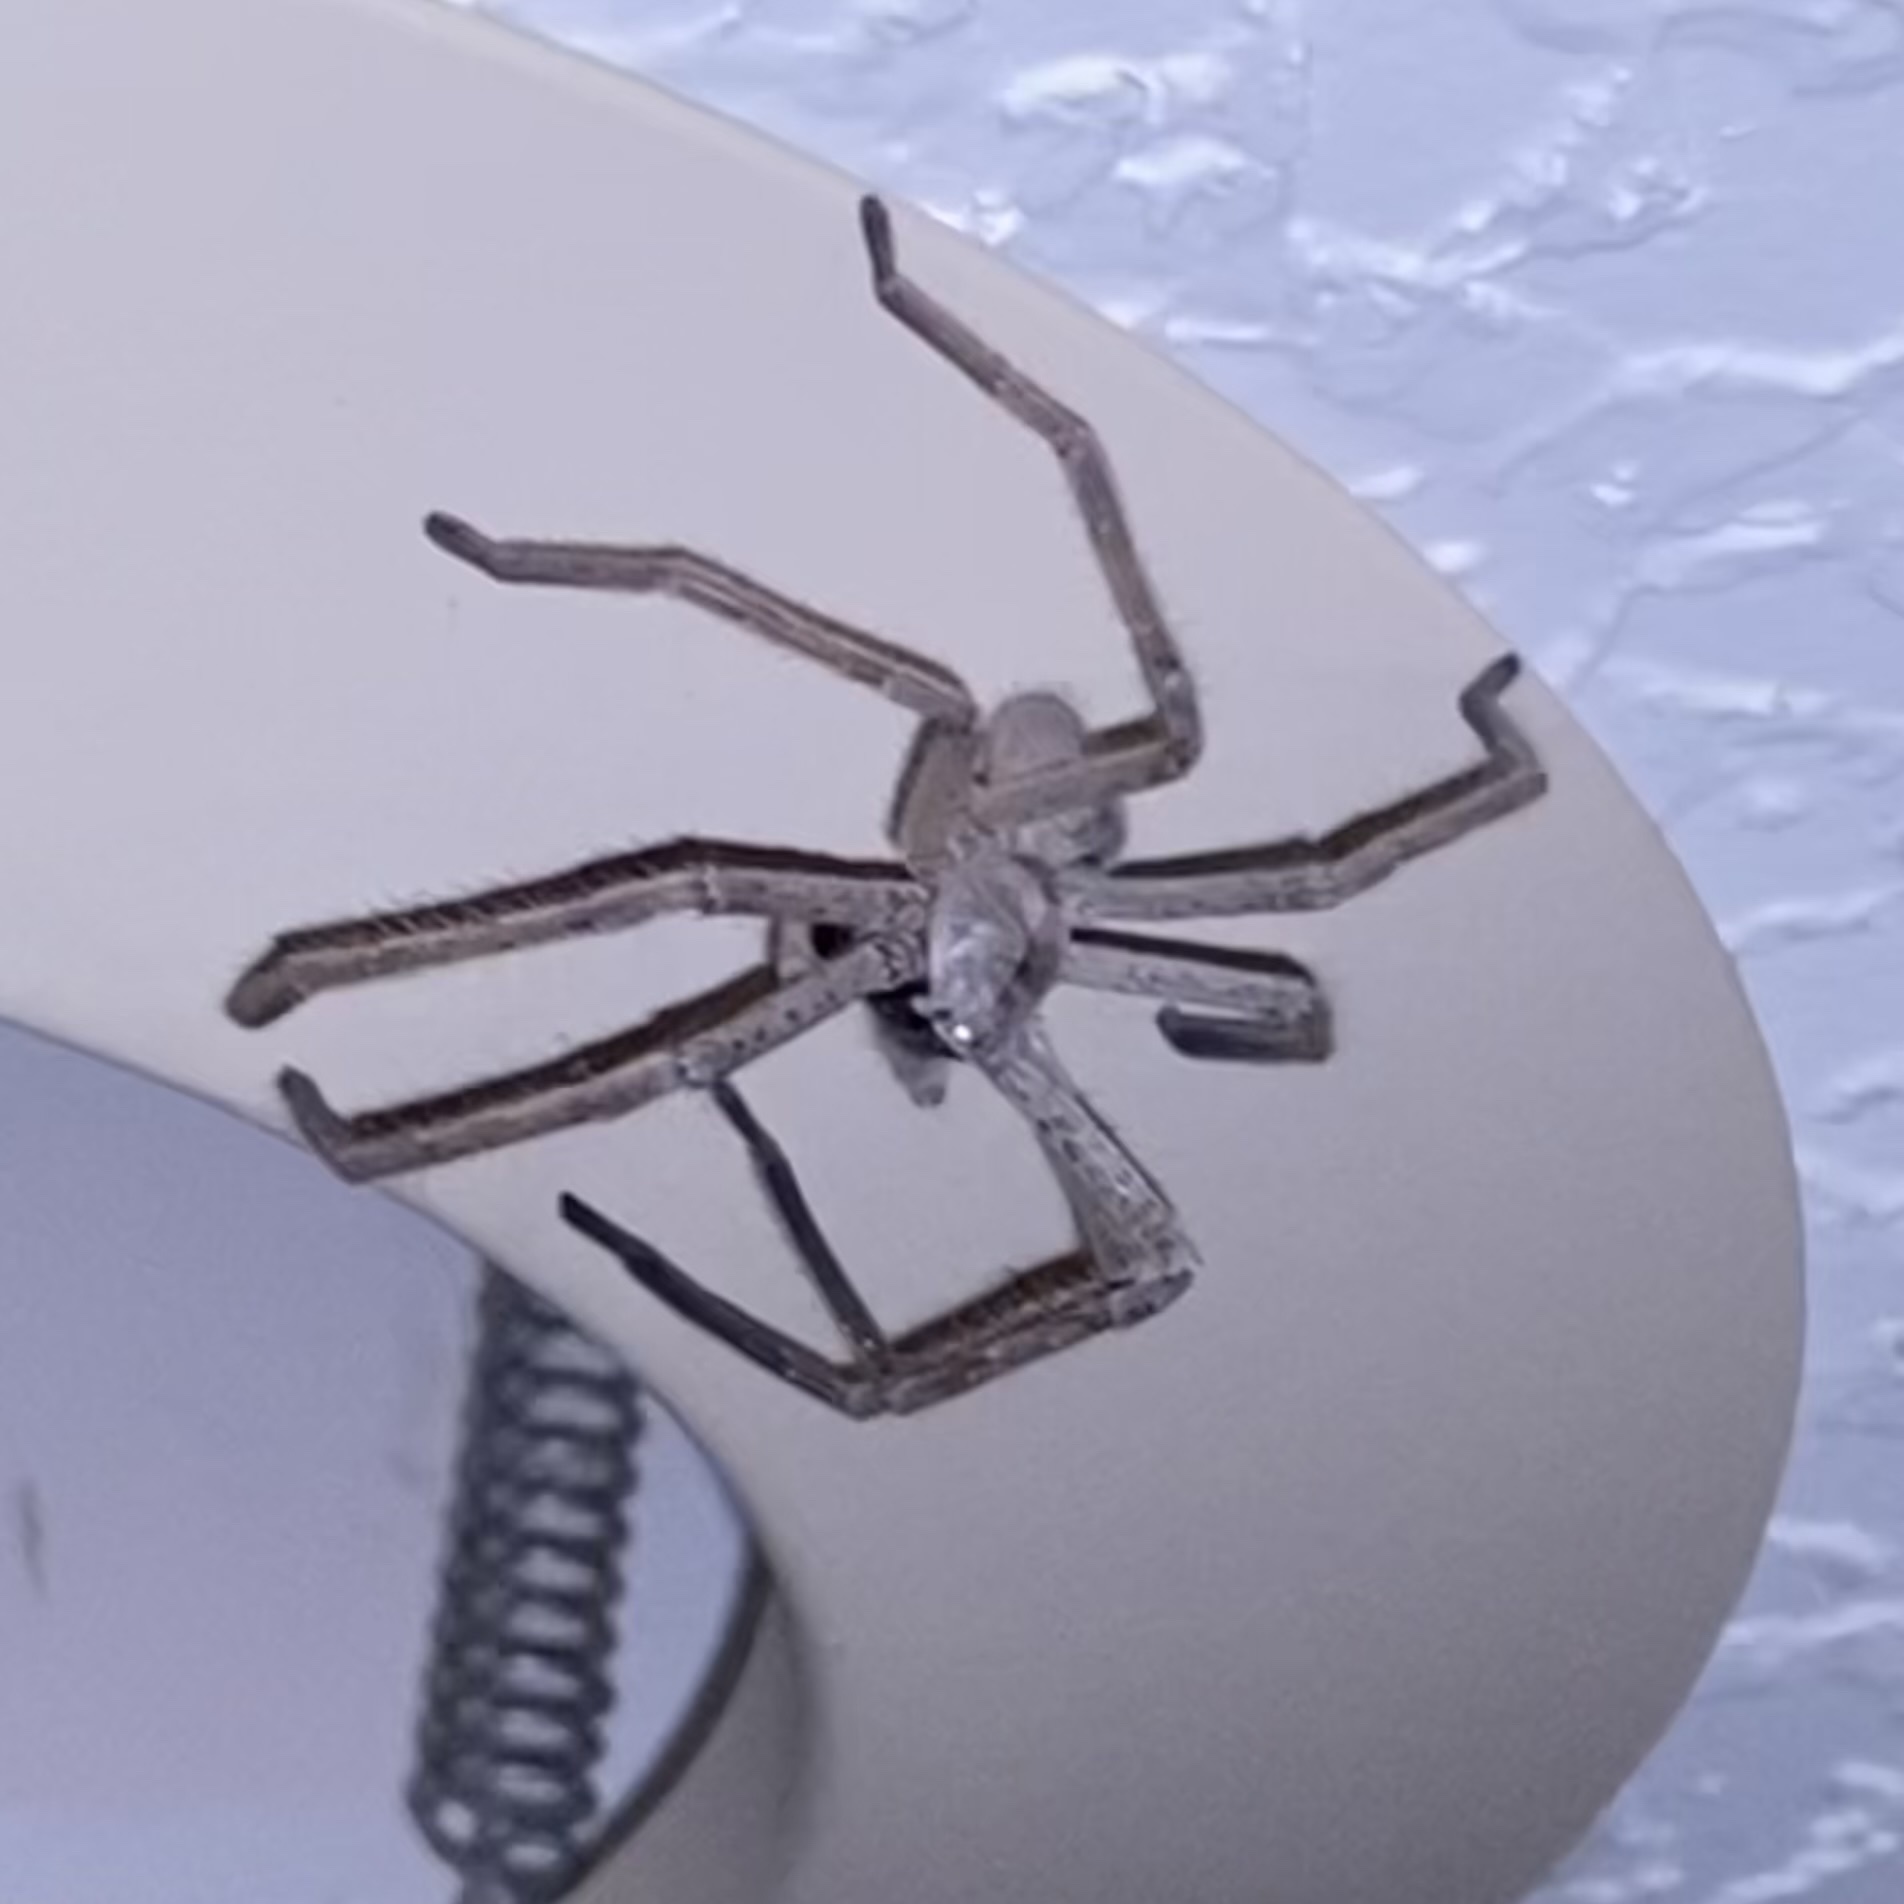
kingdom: Animalia
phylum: Arthropoda
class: Arachnida
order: Araneae
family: Sparassidae
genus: Olios
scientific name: Olios giganteus
